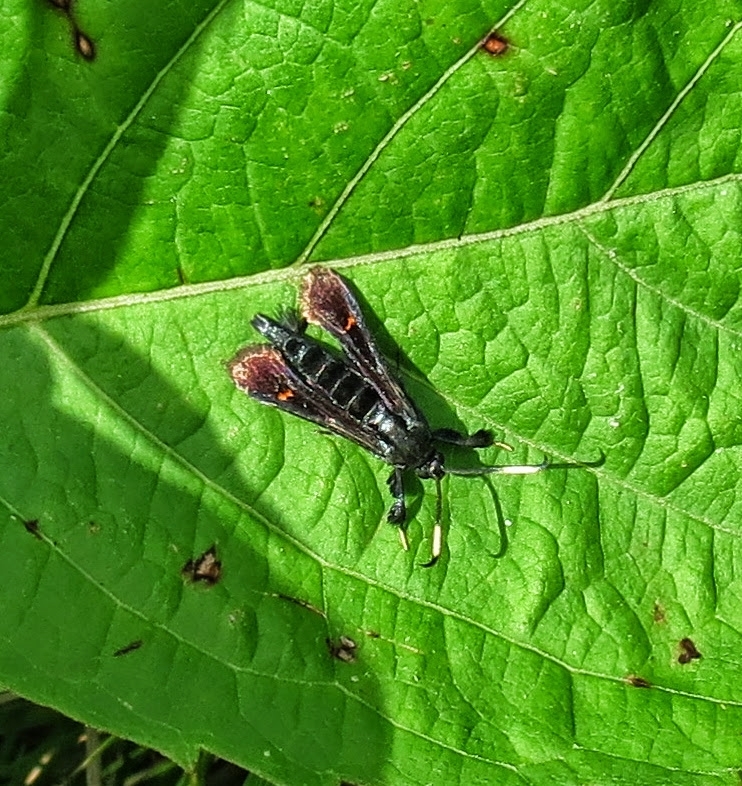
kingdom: Animalia
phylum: Arthropoda
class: Insecta
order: Lepidoptera
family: Sesiidae
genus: Albuna
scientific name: Albuna fraxini
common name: Virginia creeper clearwing
